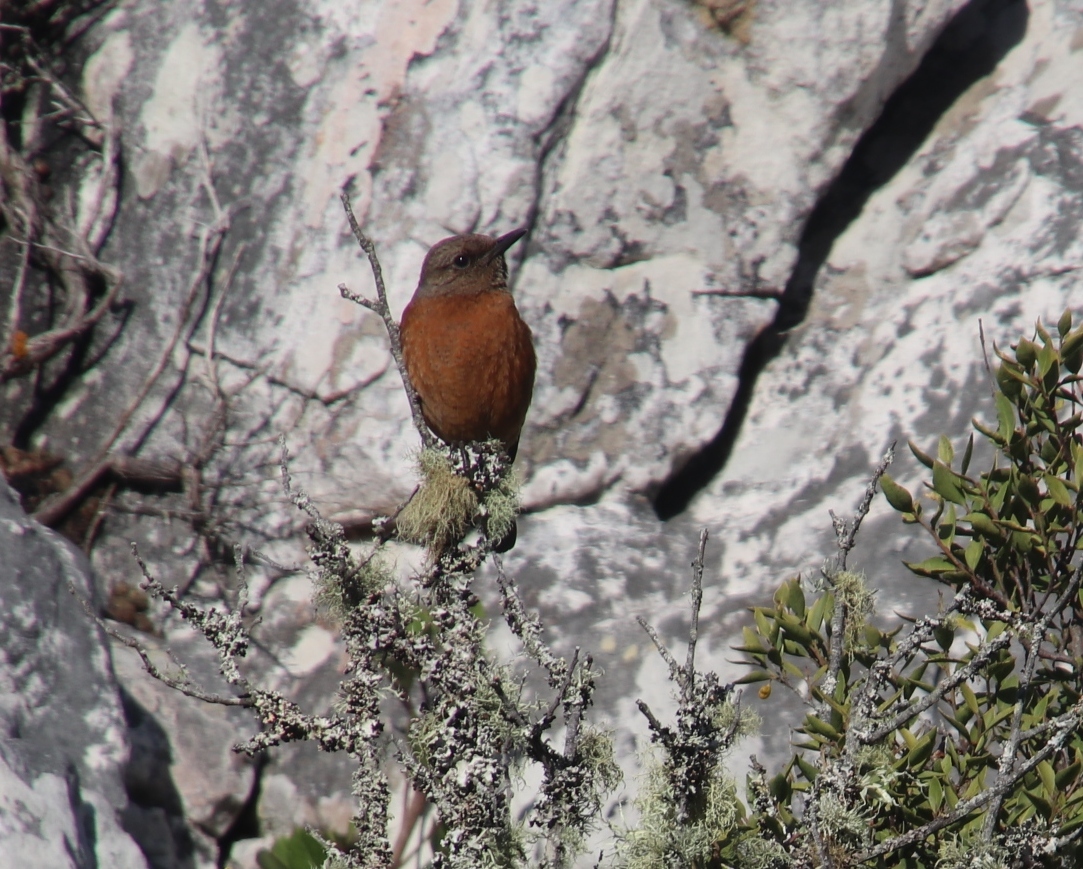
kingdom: Animalia
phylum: Chordata
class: Aves
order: Passeriformes
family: Muscicapidae
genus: Monticola
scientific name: Monticola rupestris
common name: Cape rock thrush
